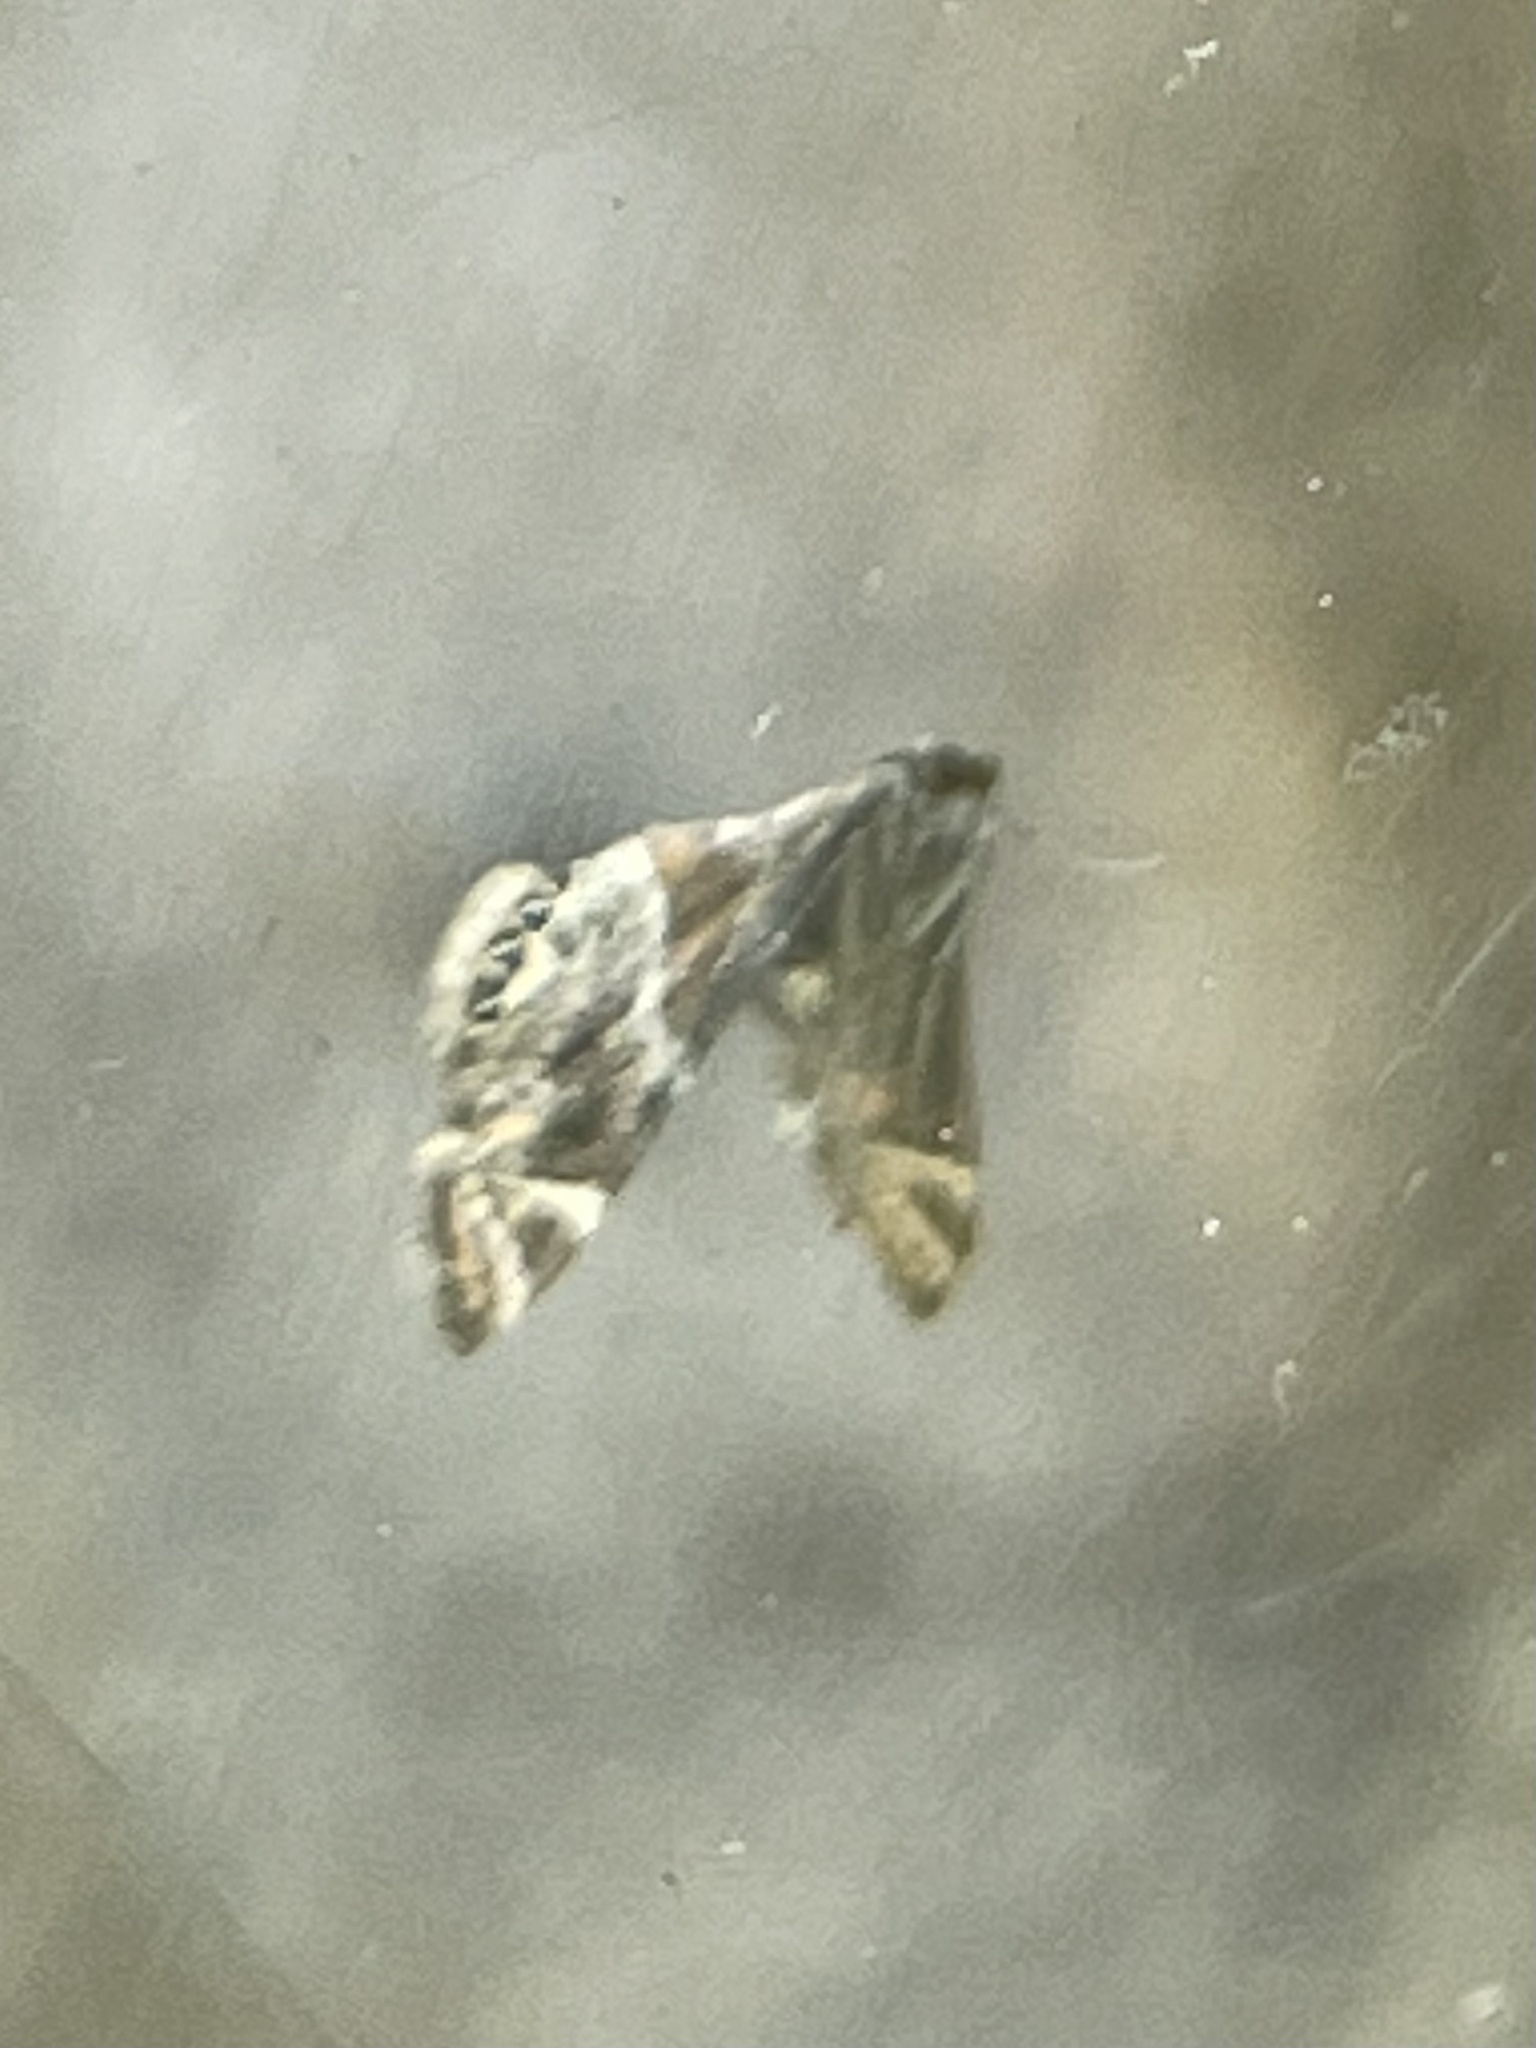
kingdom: Animalia
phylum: Arthropoda
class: Insecta
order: Lepidoptera
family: Crambidae
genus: Petrophila
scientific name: Petrophila jaliscalis
